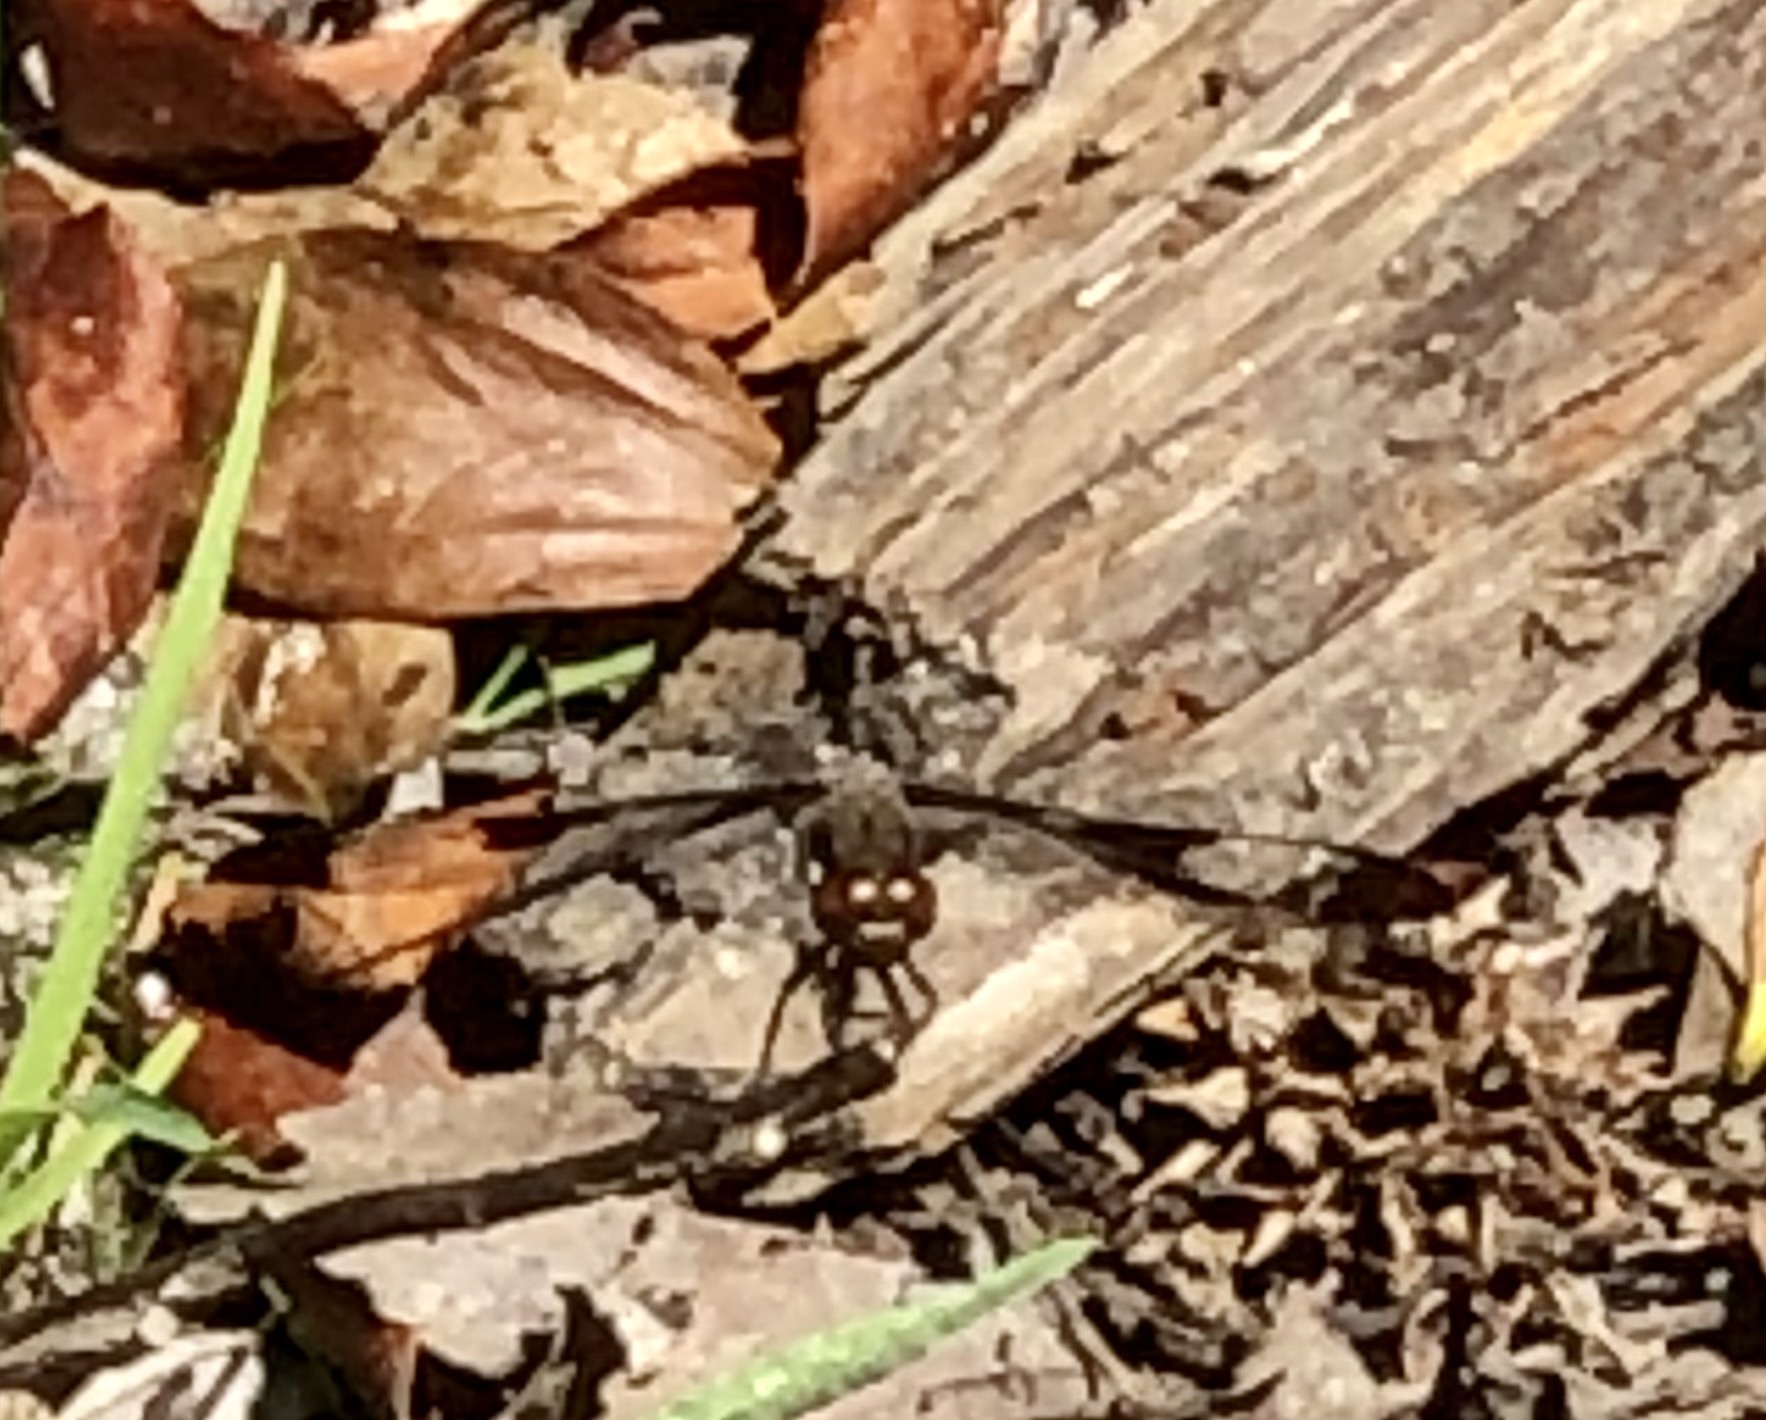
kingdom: Animalia
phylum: Arthropoda
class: Insecta
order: Odonata
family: Libellulidae
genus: Plathemis
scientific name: Plathemis lydia
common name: Common whitetail
